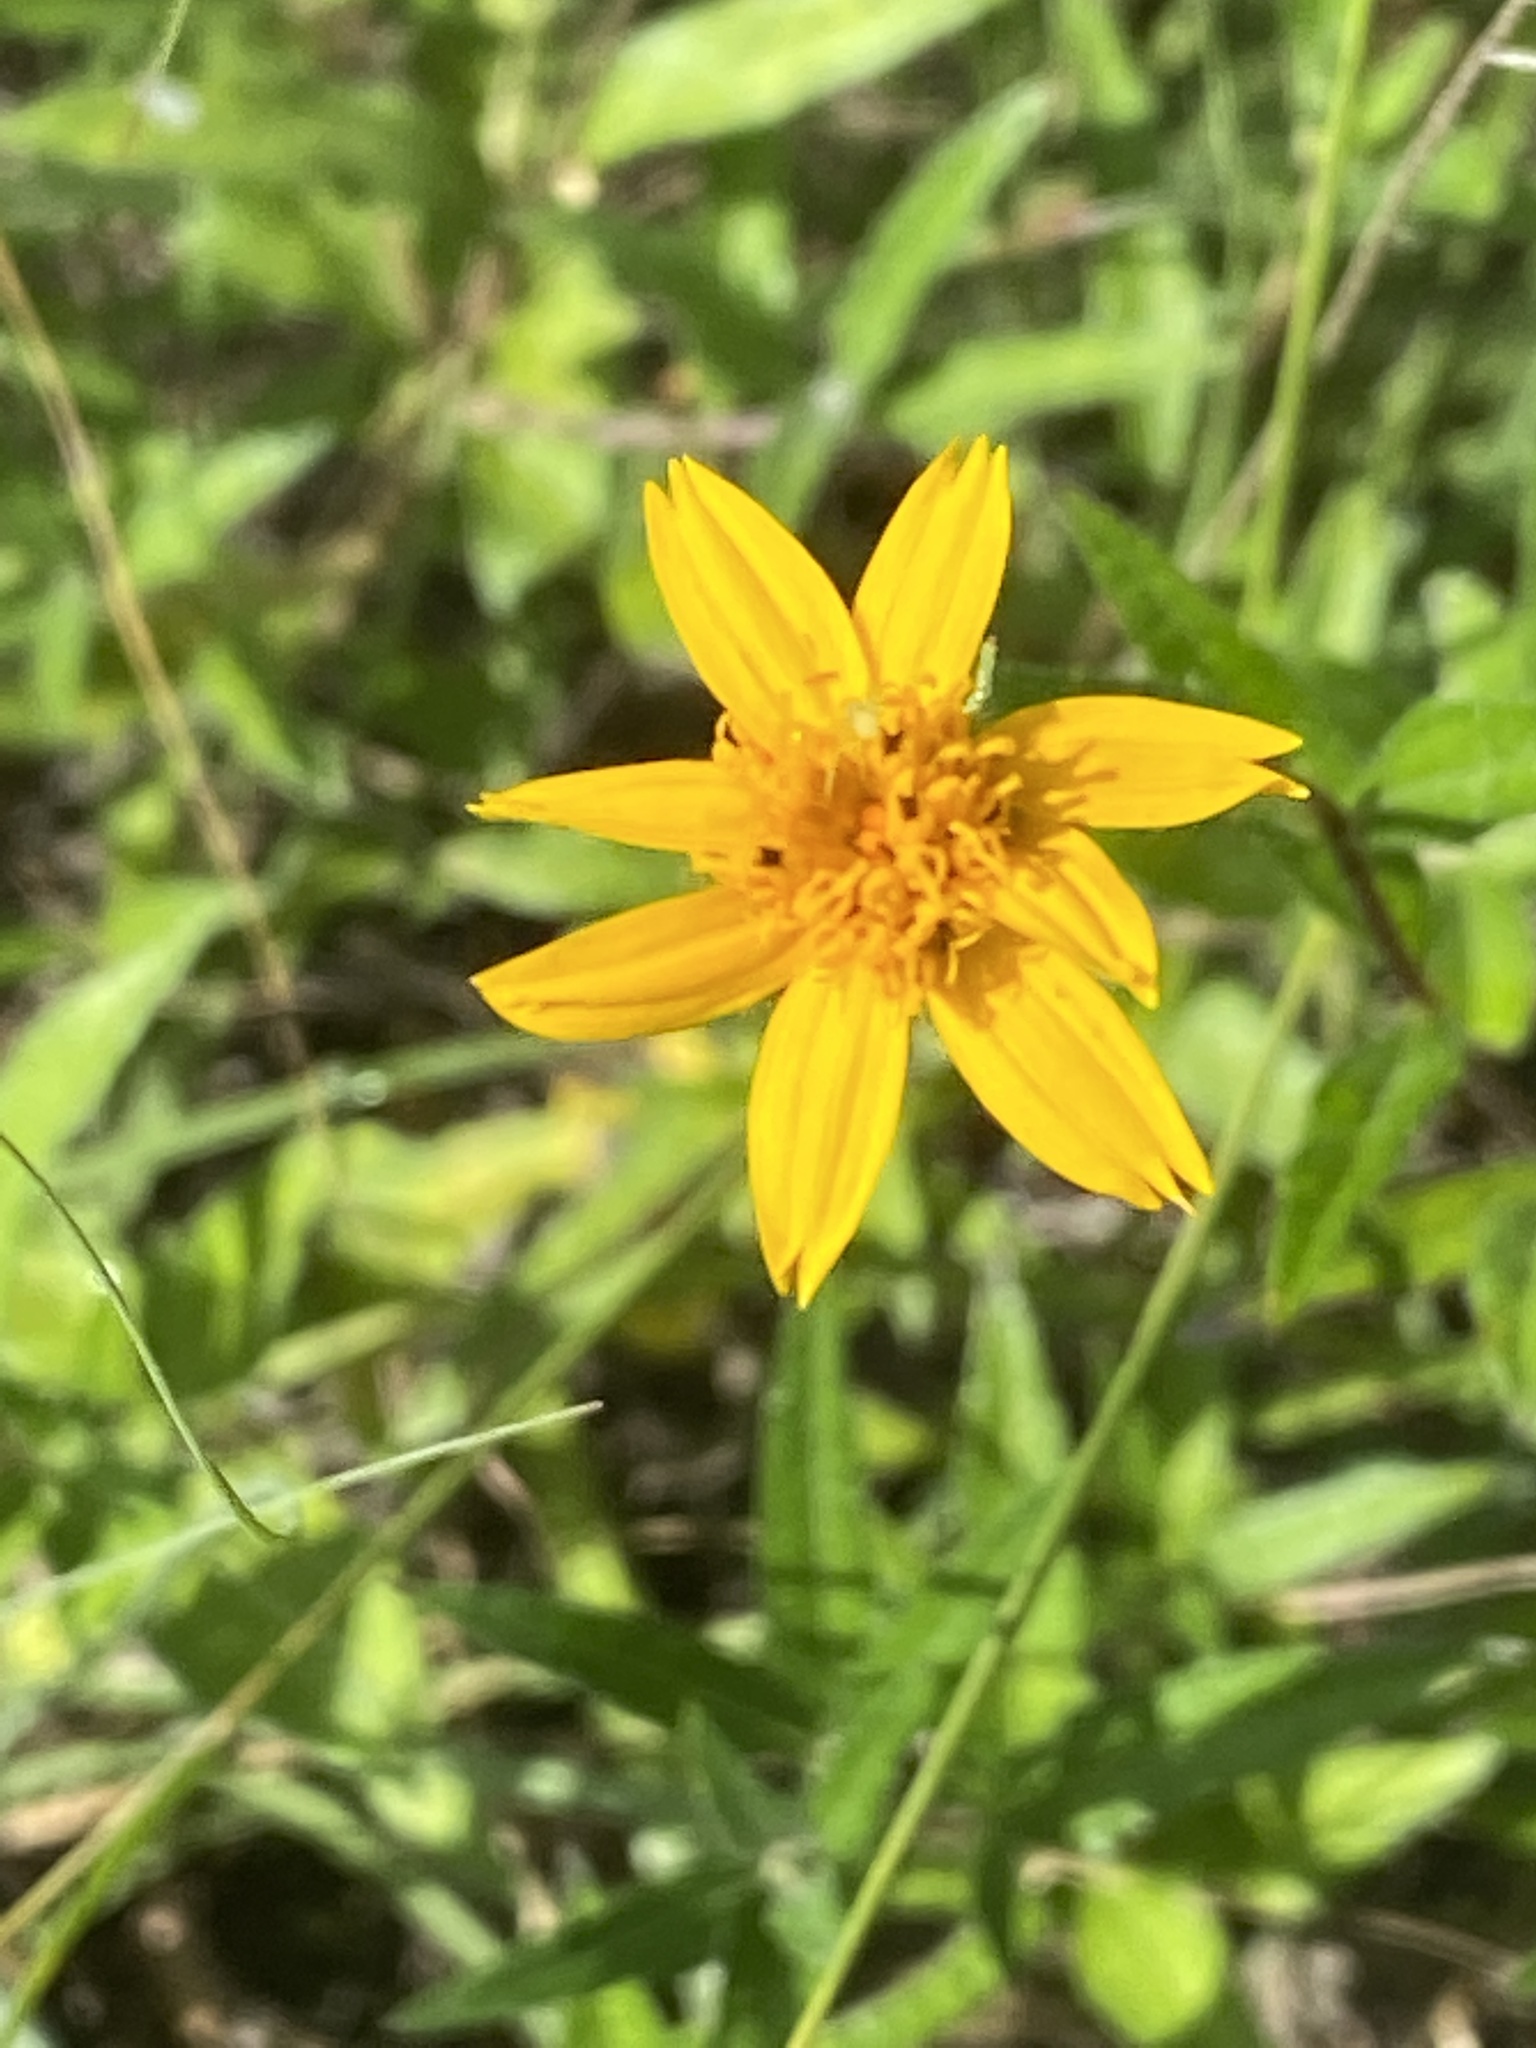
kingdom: Plantae
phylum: Tracheophyta
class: Magnoliopsida
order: Asterales
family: Asteraceae
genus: Wedelia
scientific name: Wedelia acapulcensis
